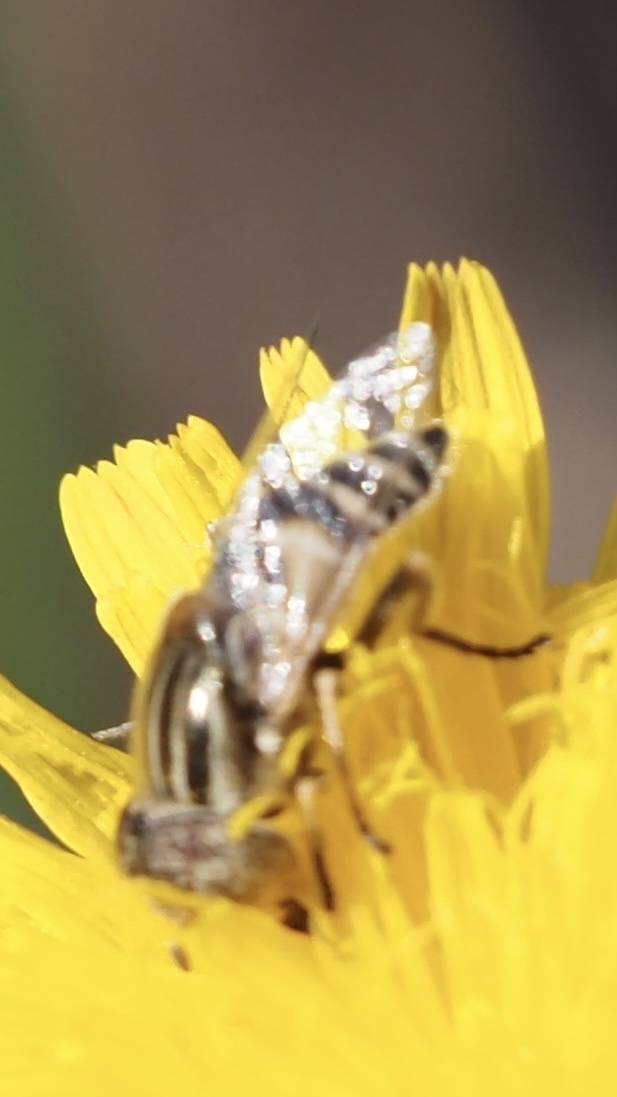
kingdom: Animalia
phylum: Arthropoda
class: Insecta
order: Diptera
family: Syrphidae
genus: Eristalinus
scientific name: Eristalinus megacephalus
